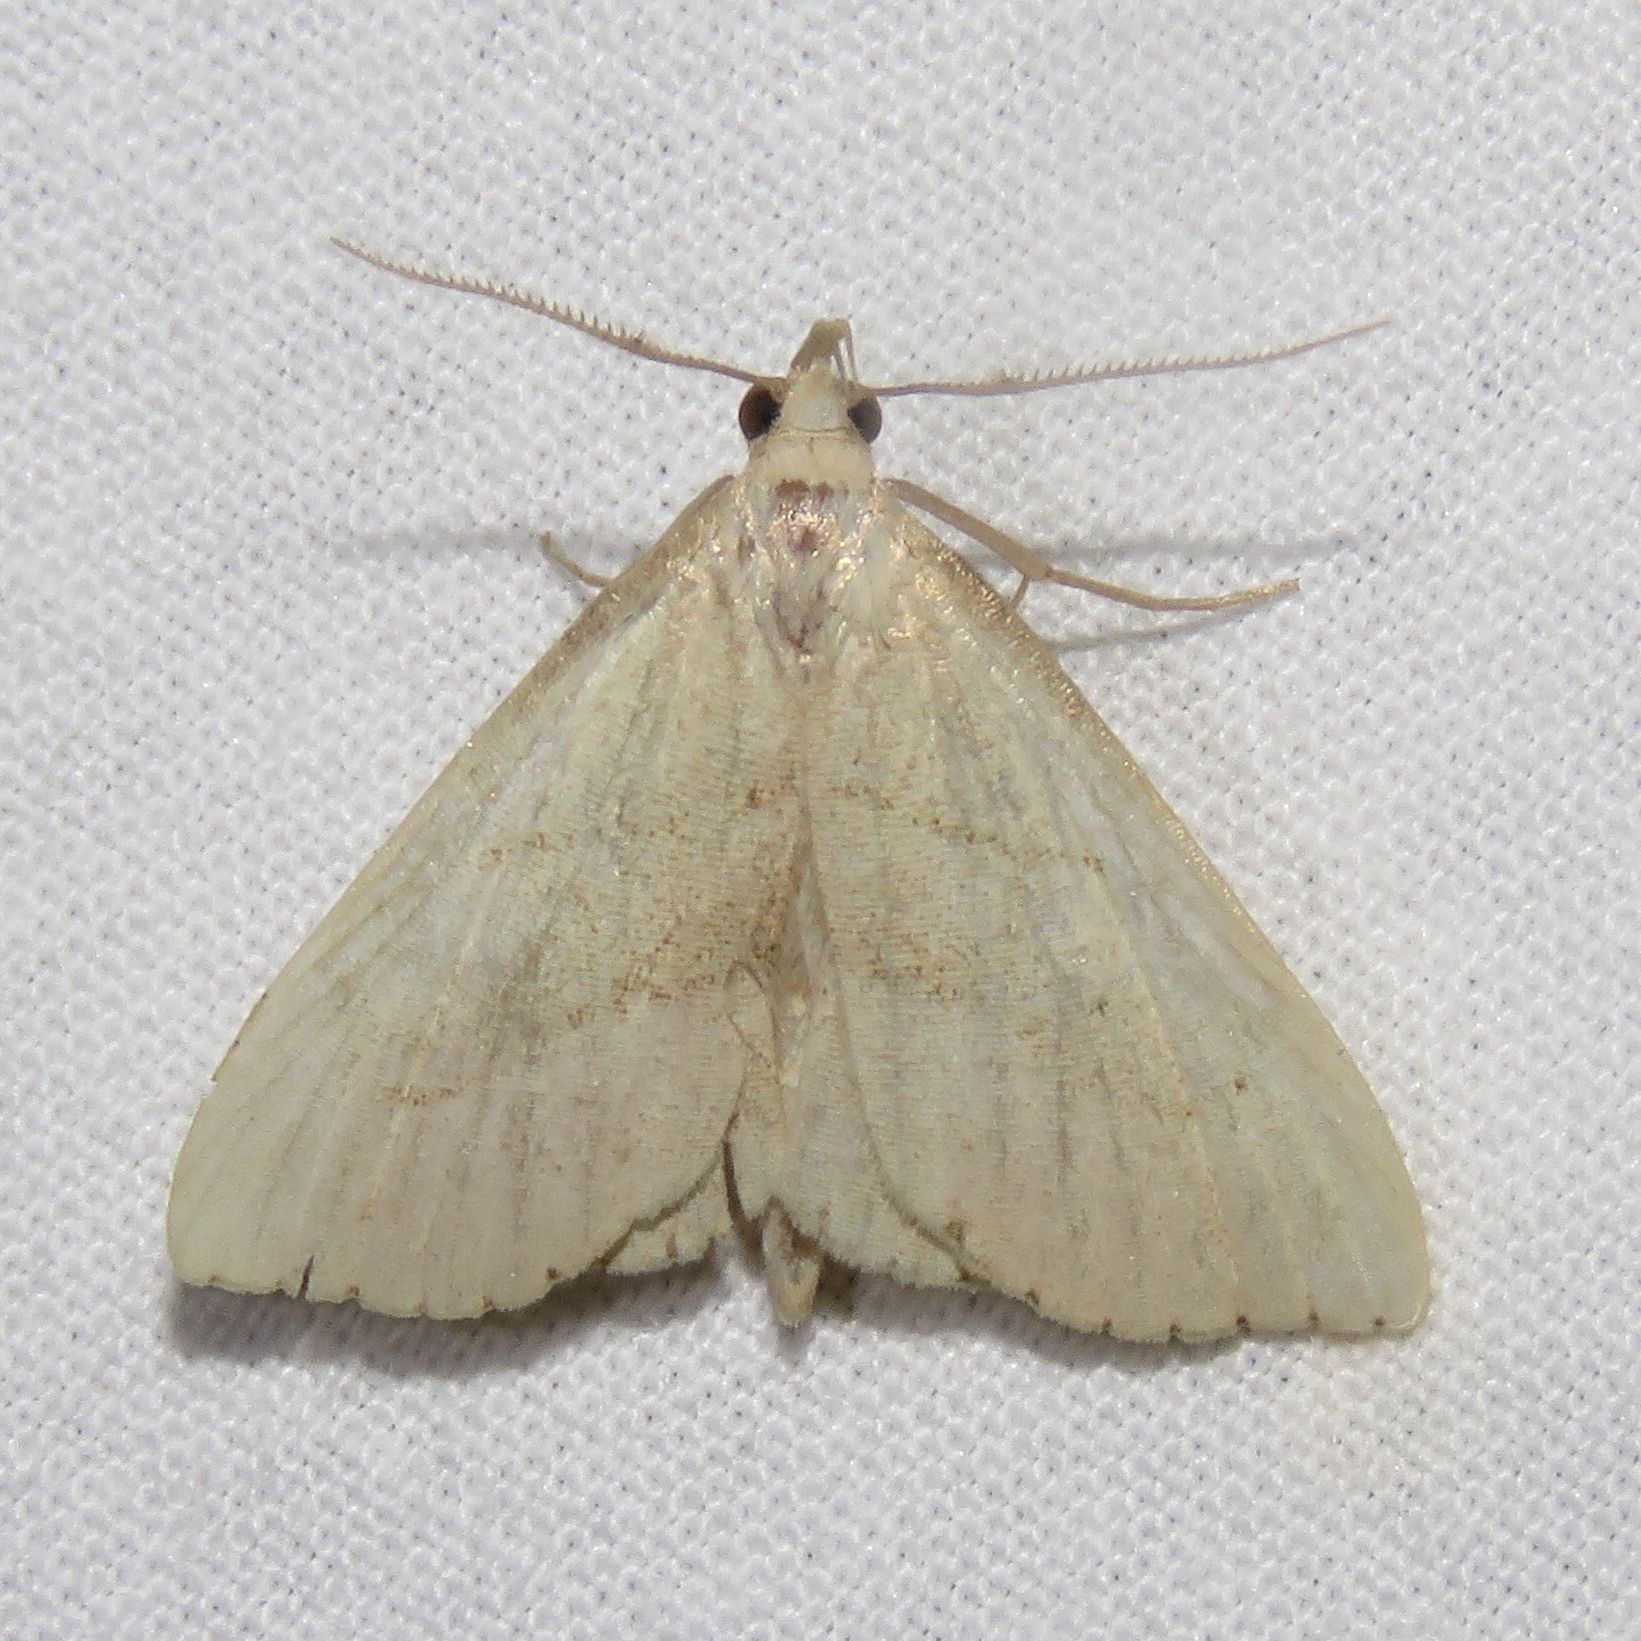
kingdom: Animalia
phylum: Arthropoda
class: Insecta
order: Lepidoptera
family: Erebidae
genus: Macrochilo
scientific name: Macrochilo litophora
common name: Brown-lined owlet
